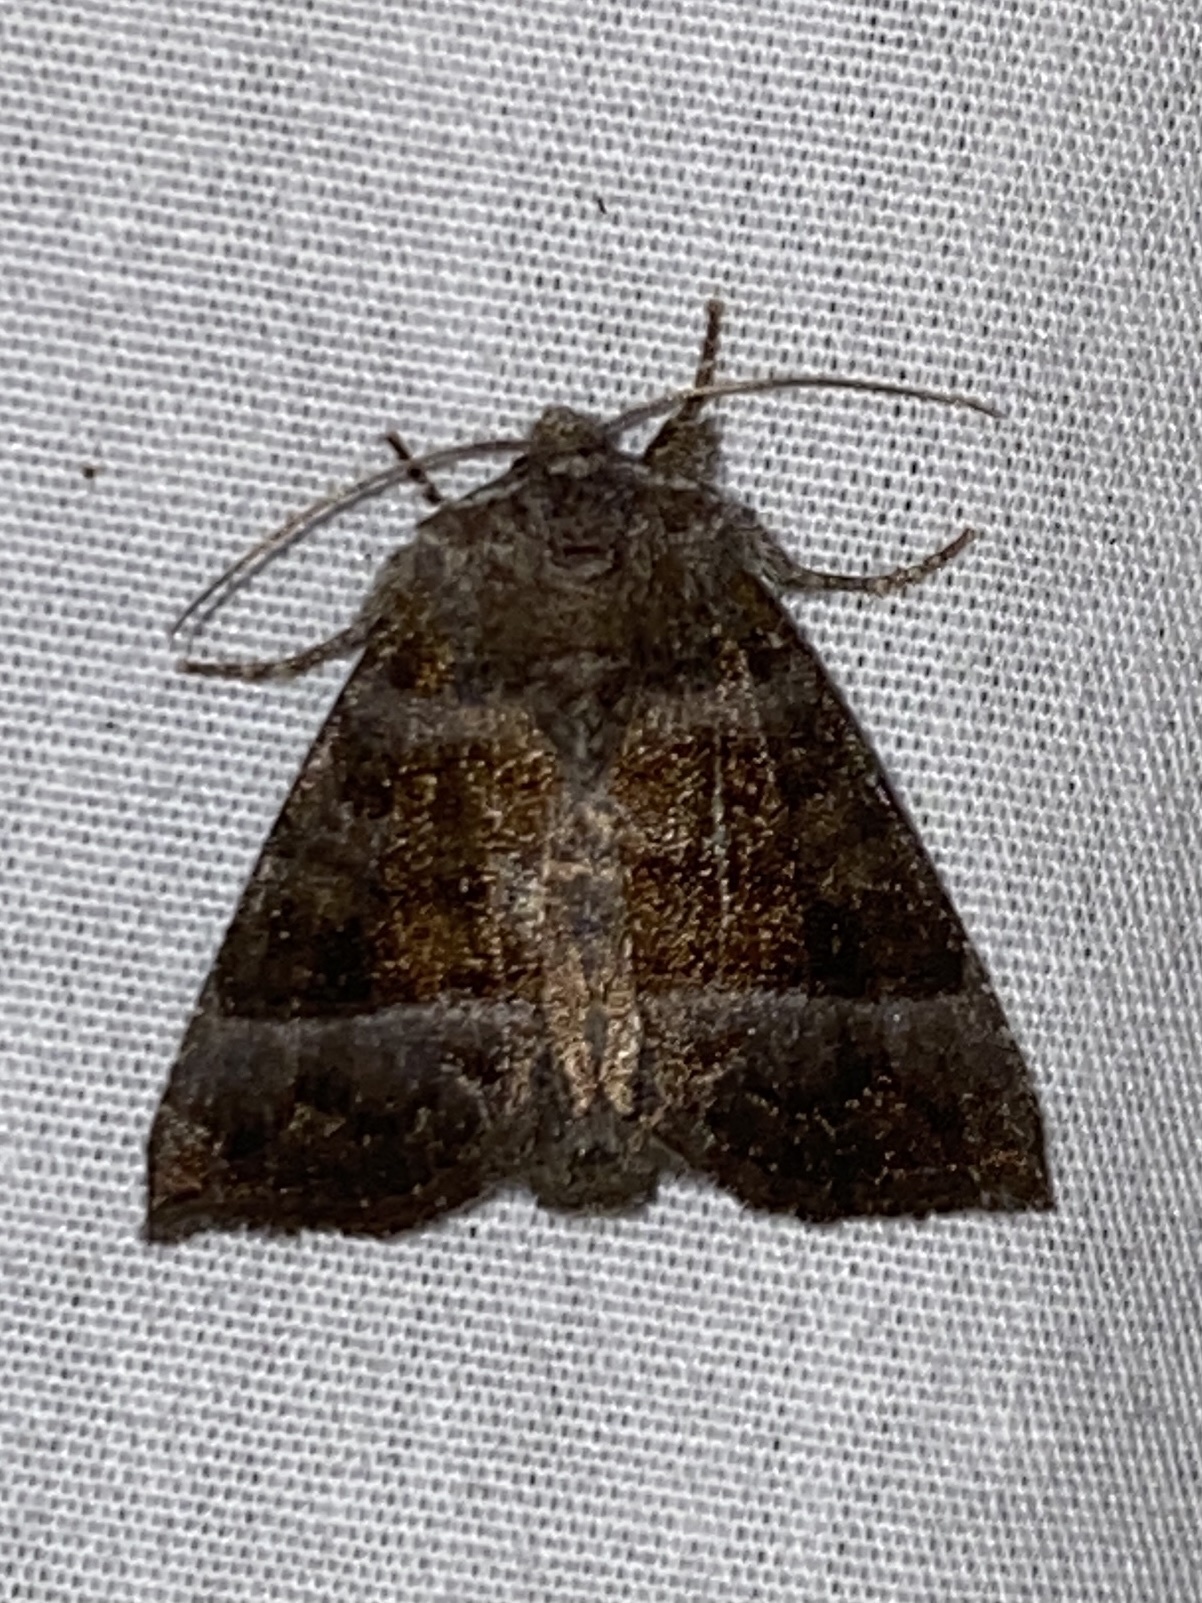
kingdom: Animalia
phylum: Arthropoda
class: Insecta
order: Lepidoptera
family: Noctuidae
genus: Papaipema
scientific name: Papaipema eupatorii
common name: Eupatorium borer moth
